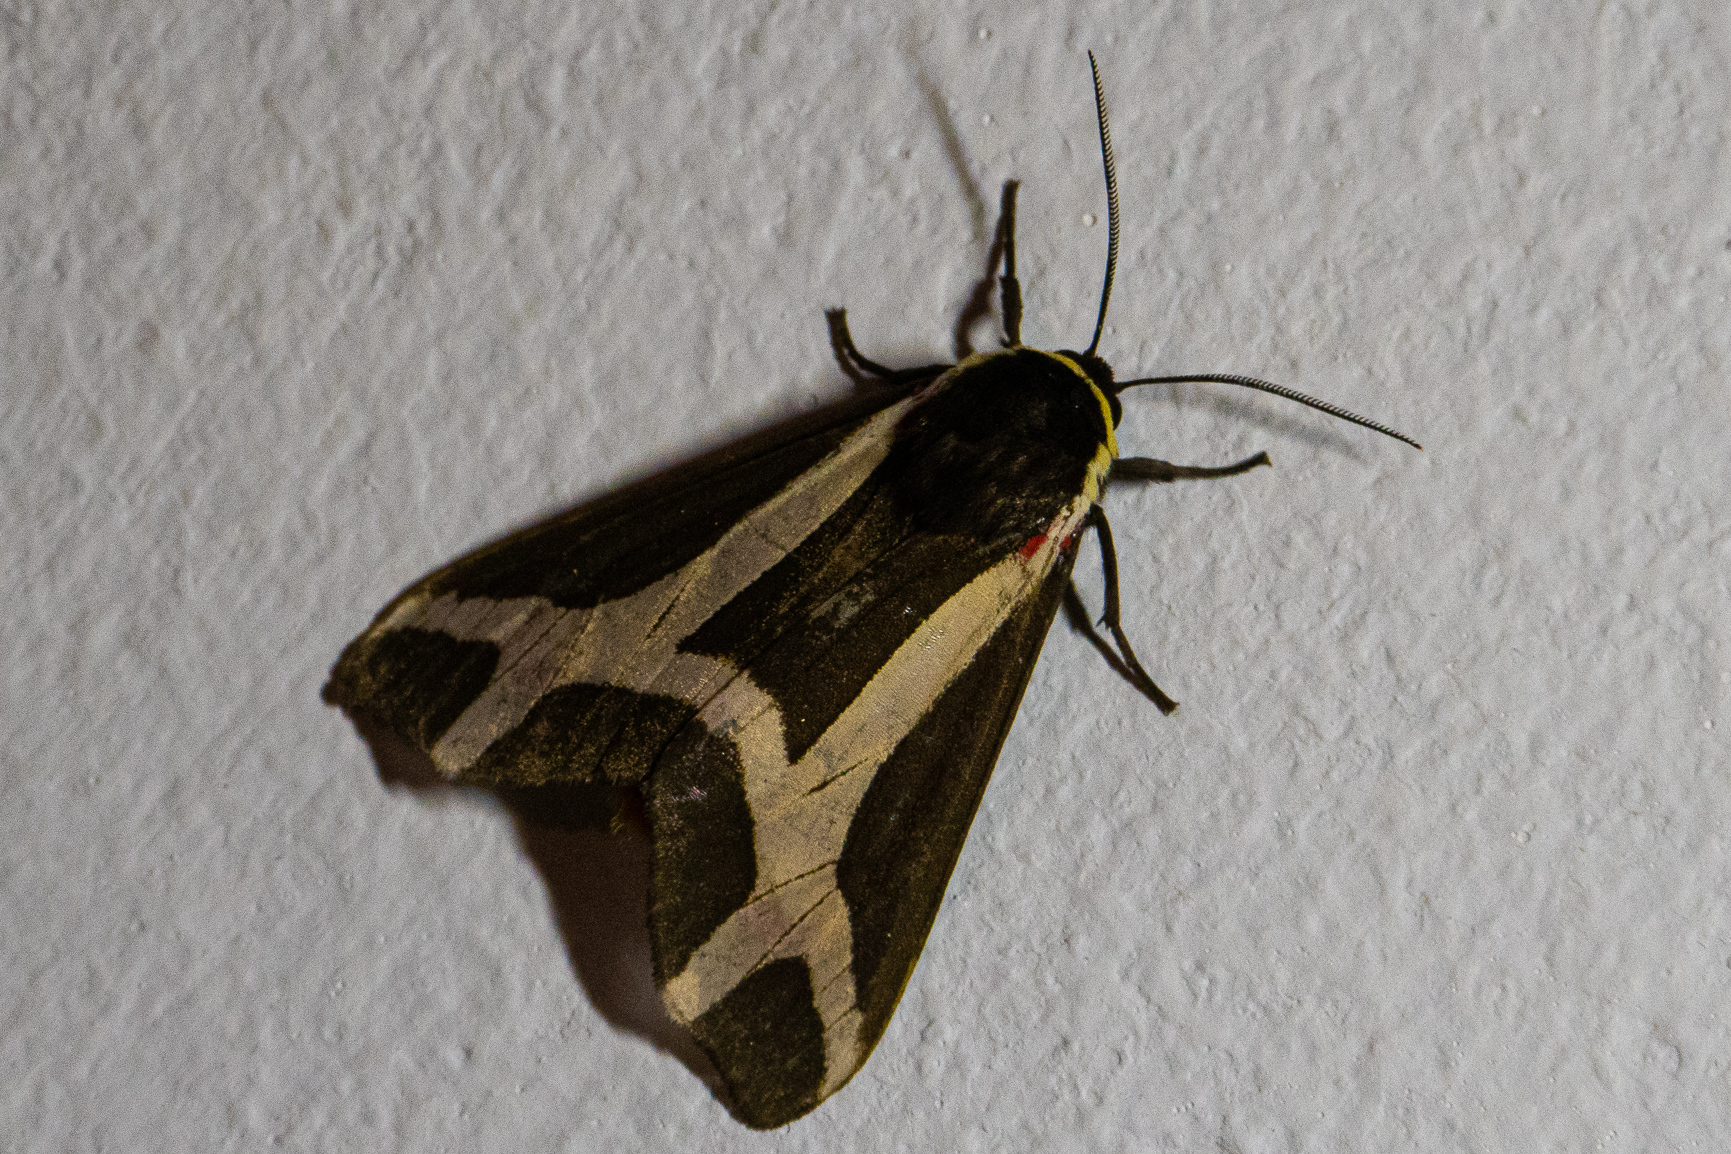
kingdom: Animalia
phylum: Arthropoda
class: Insecta
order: Lepidoptera
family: Erebidae
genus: Dysschema
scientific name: Dysschema sacrifica
